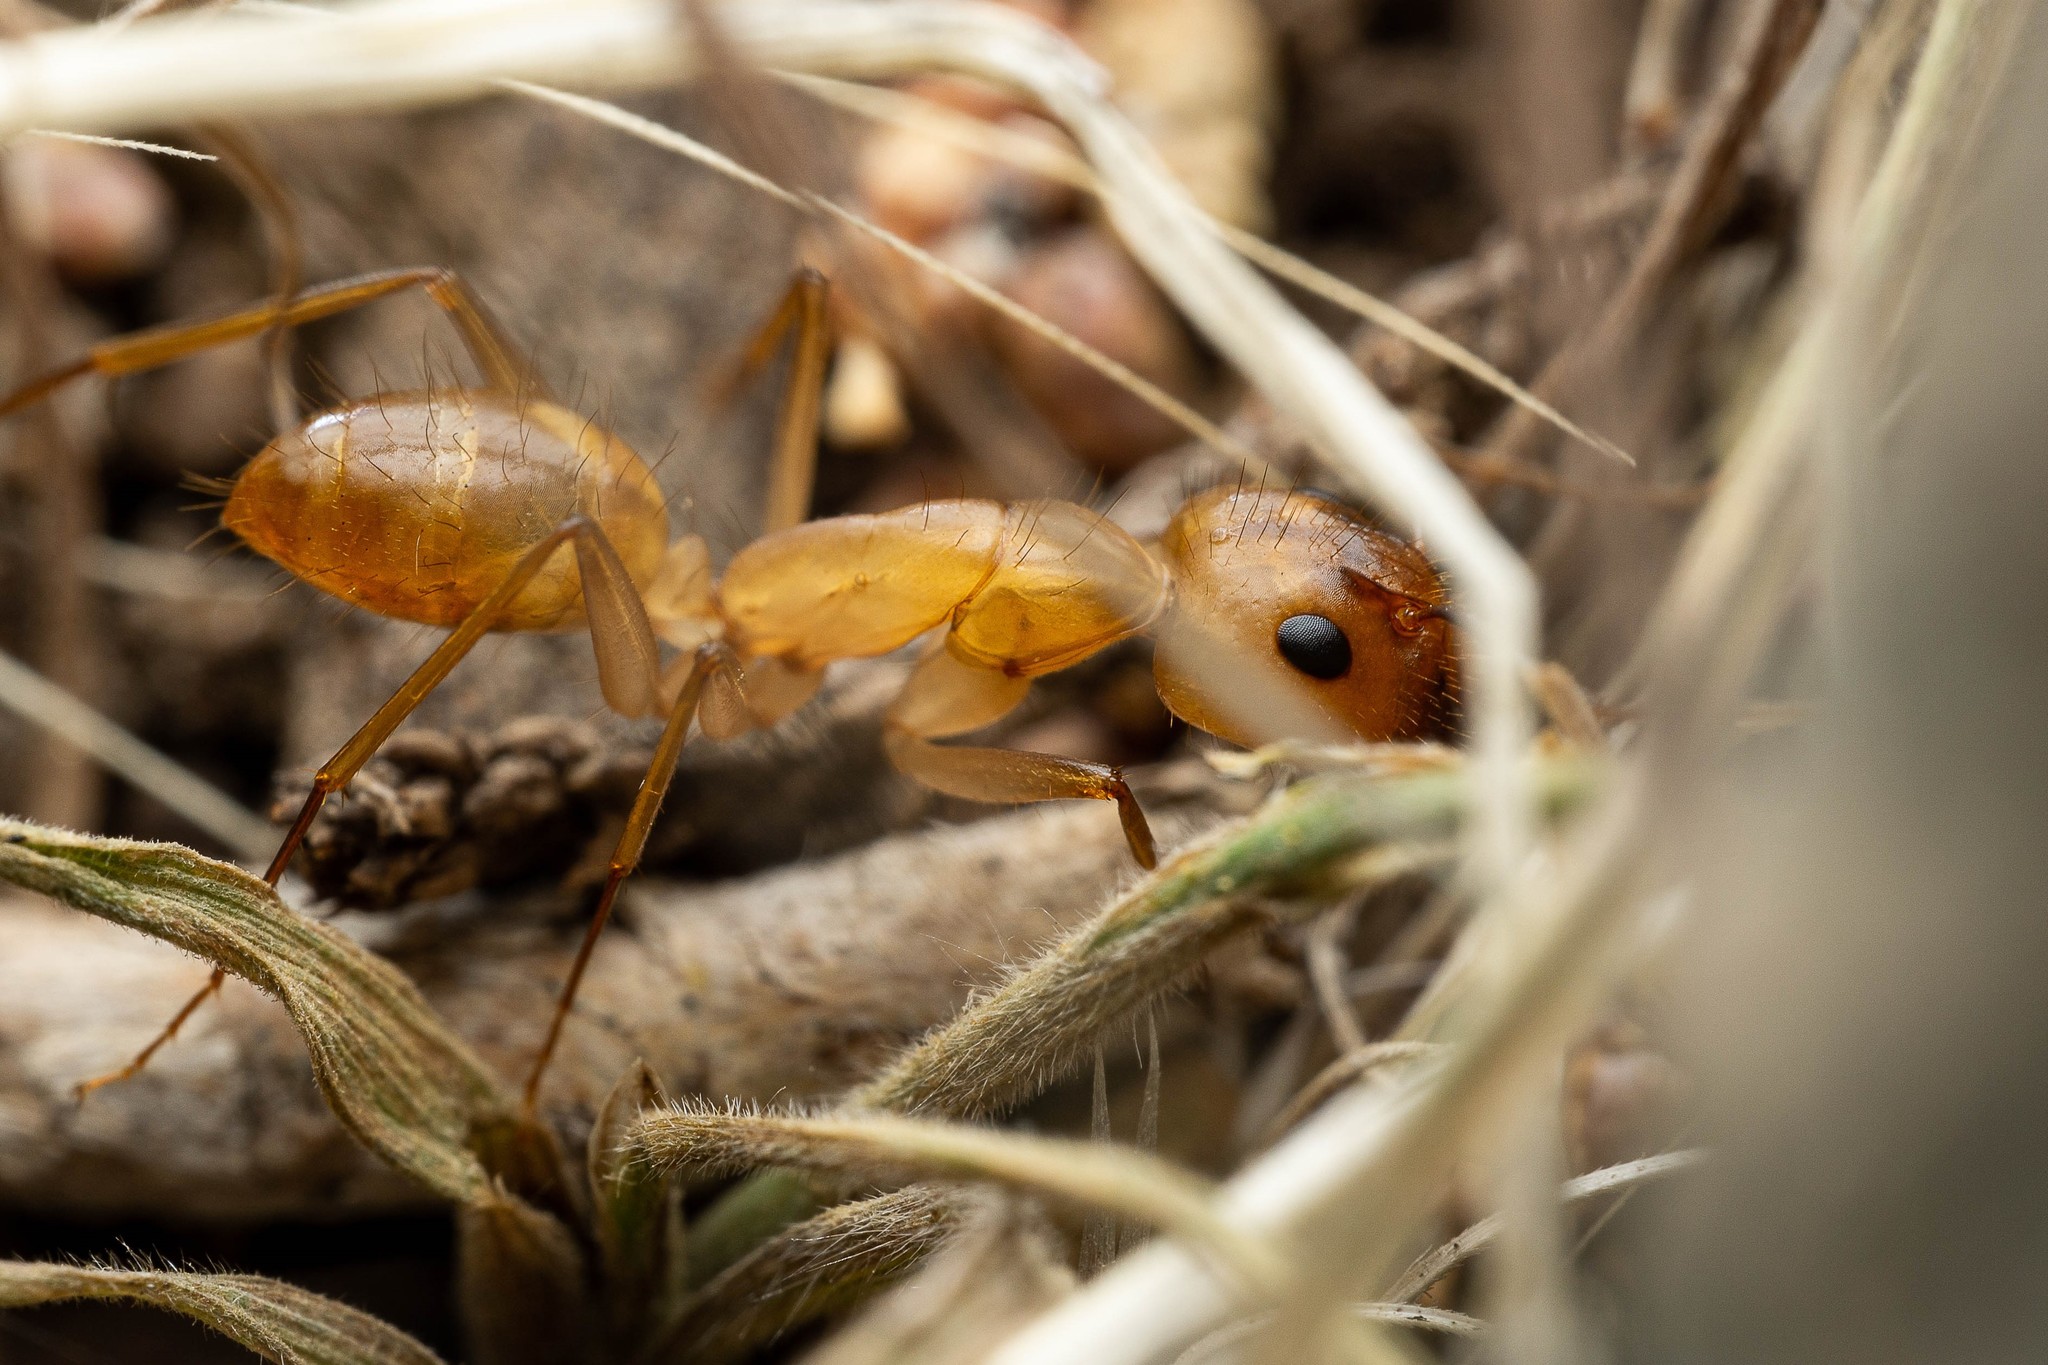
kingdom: Animalia
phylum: Arthropoda
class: Insecta
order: Hymenoptera
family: Formicidae
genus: Camponotus
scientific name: Camponotus festinatus
